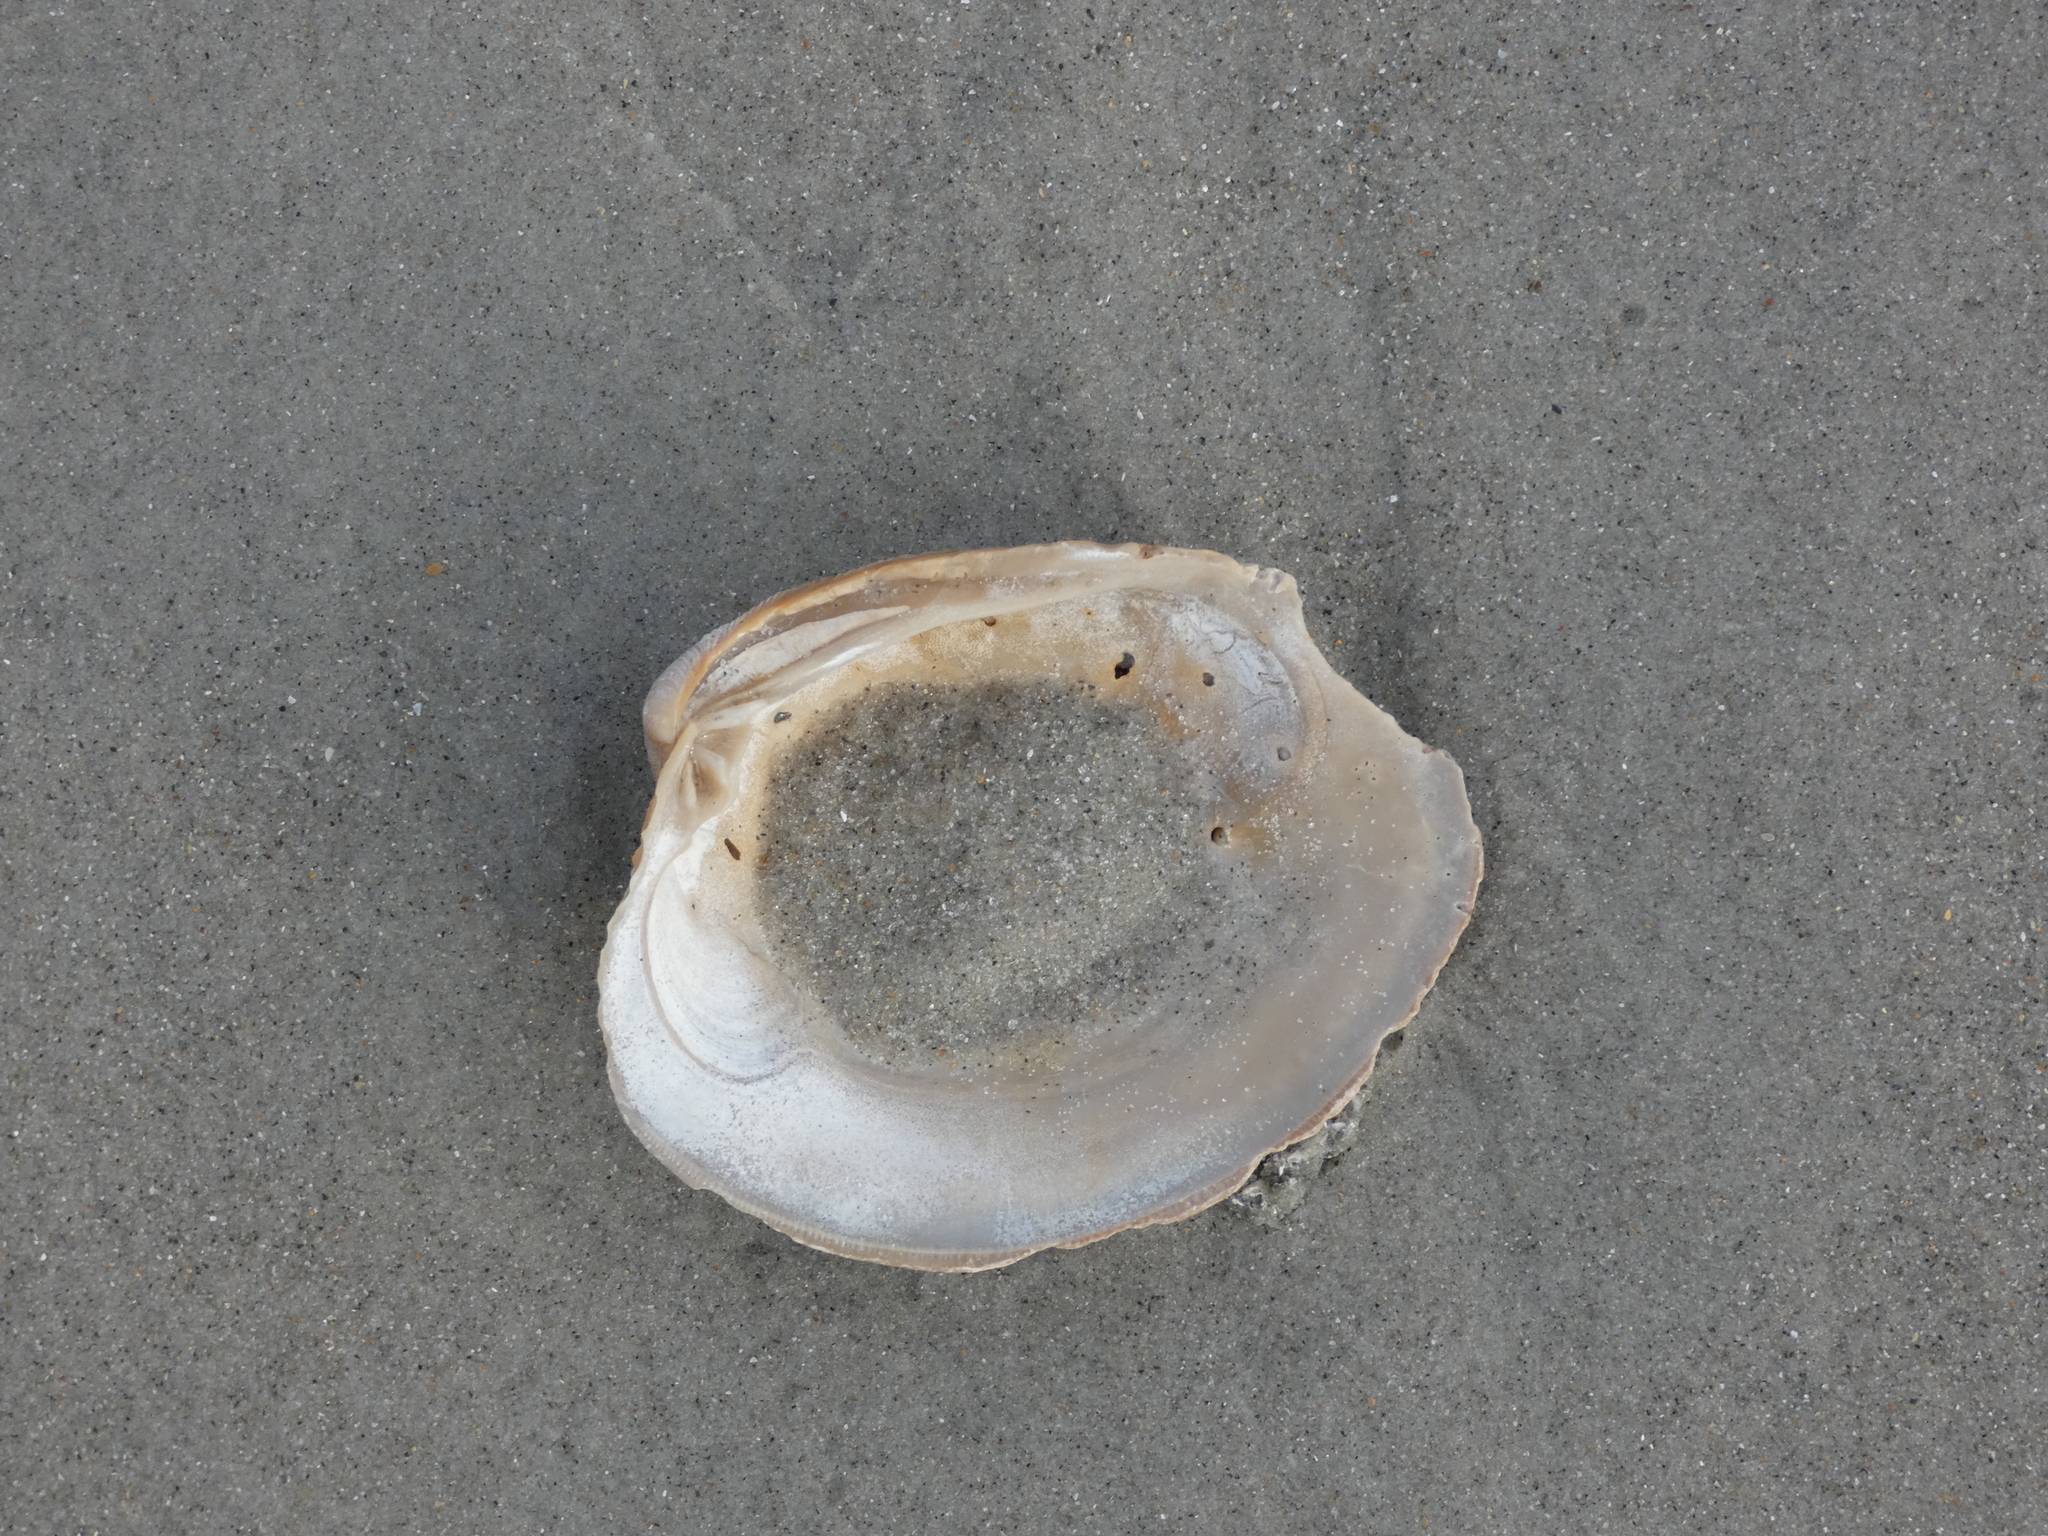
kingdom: Animalia
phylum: Mollusca
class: Bivalvia
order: Venerida
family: Veneridae
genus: Mercenaria
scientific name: Mercenaria campechiensis
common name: Südliche quahog-muschel
